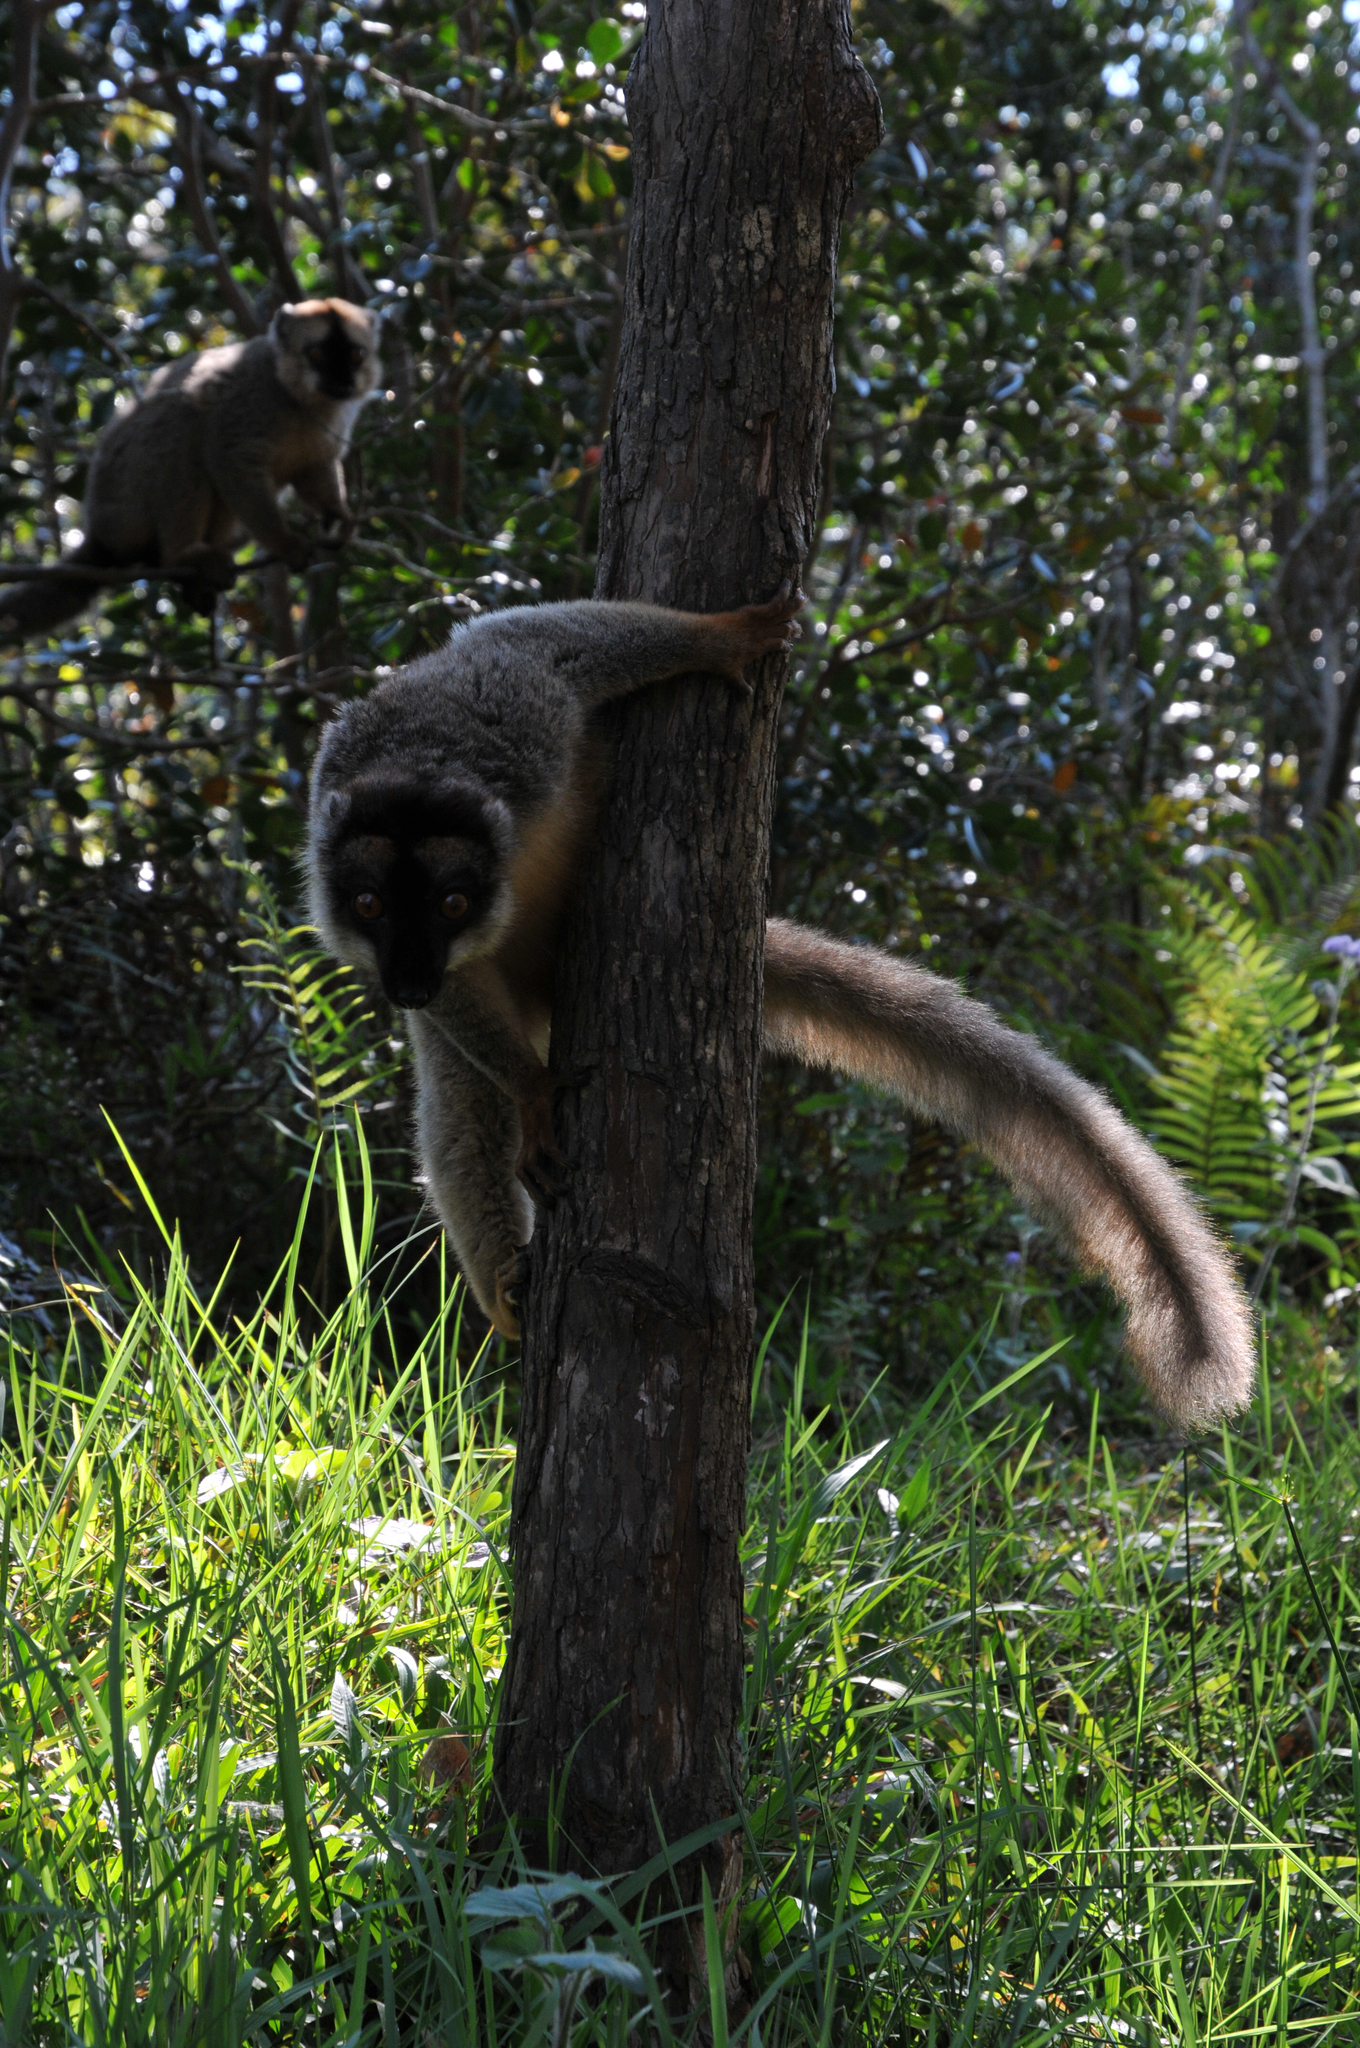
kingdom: Animalia
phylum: Chordata
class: Mammalia
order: Primates
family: Lemuridae
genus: Eulemur
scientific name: Eulemur fulvus
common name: Brown lemur
